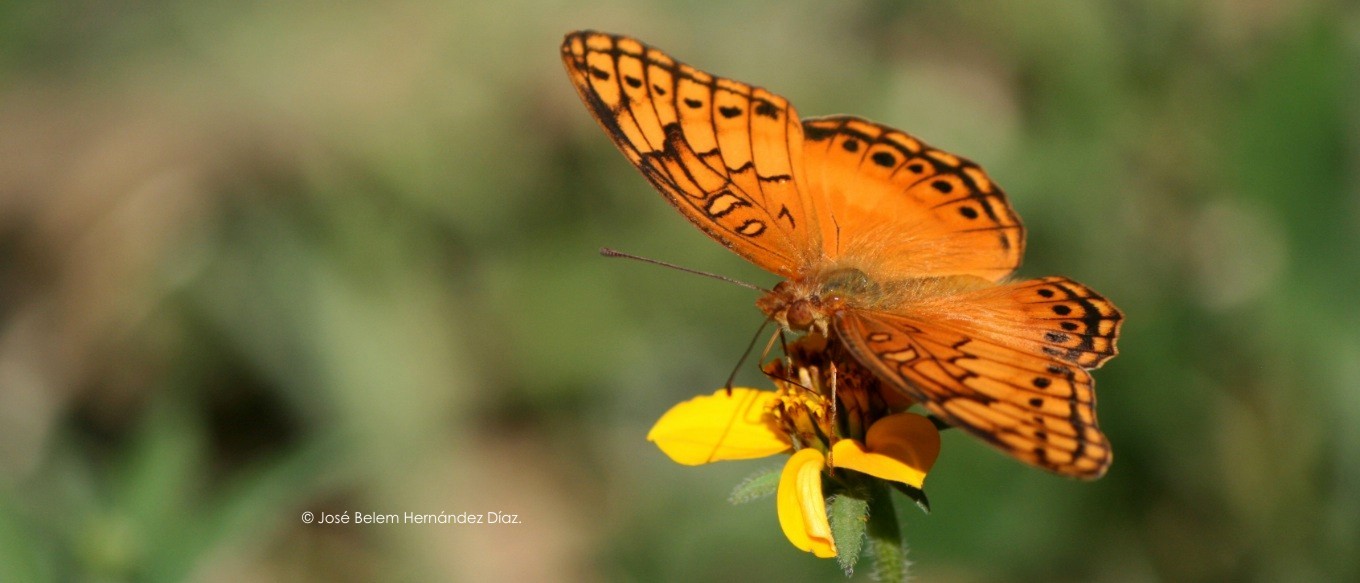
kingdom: Animalia
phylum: Arthropoda
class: Insecta
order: Lepidoptera
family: Nymphalidae
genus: Euptoieta
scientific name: Euptoieta hegesia
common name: Mexican fritillary
